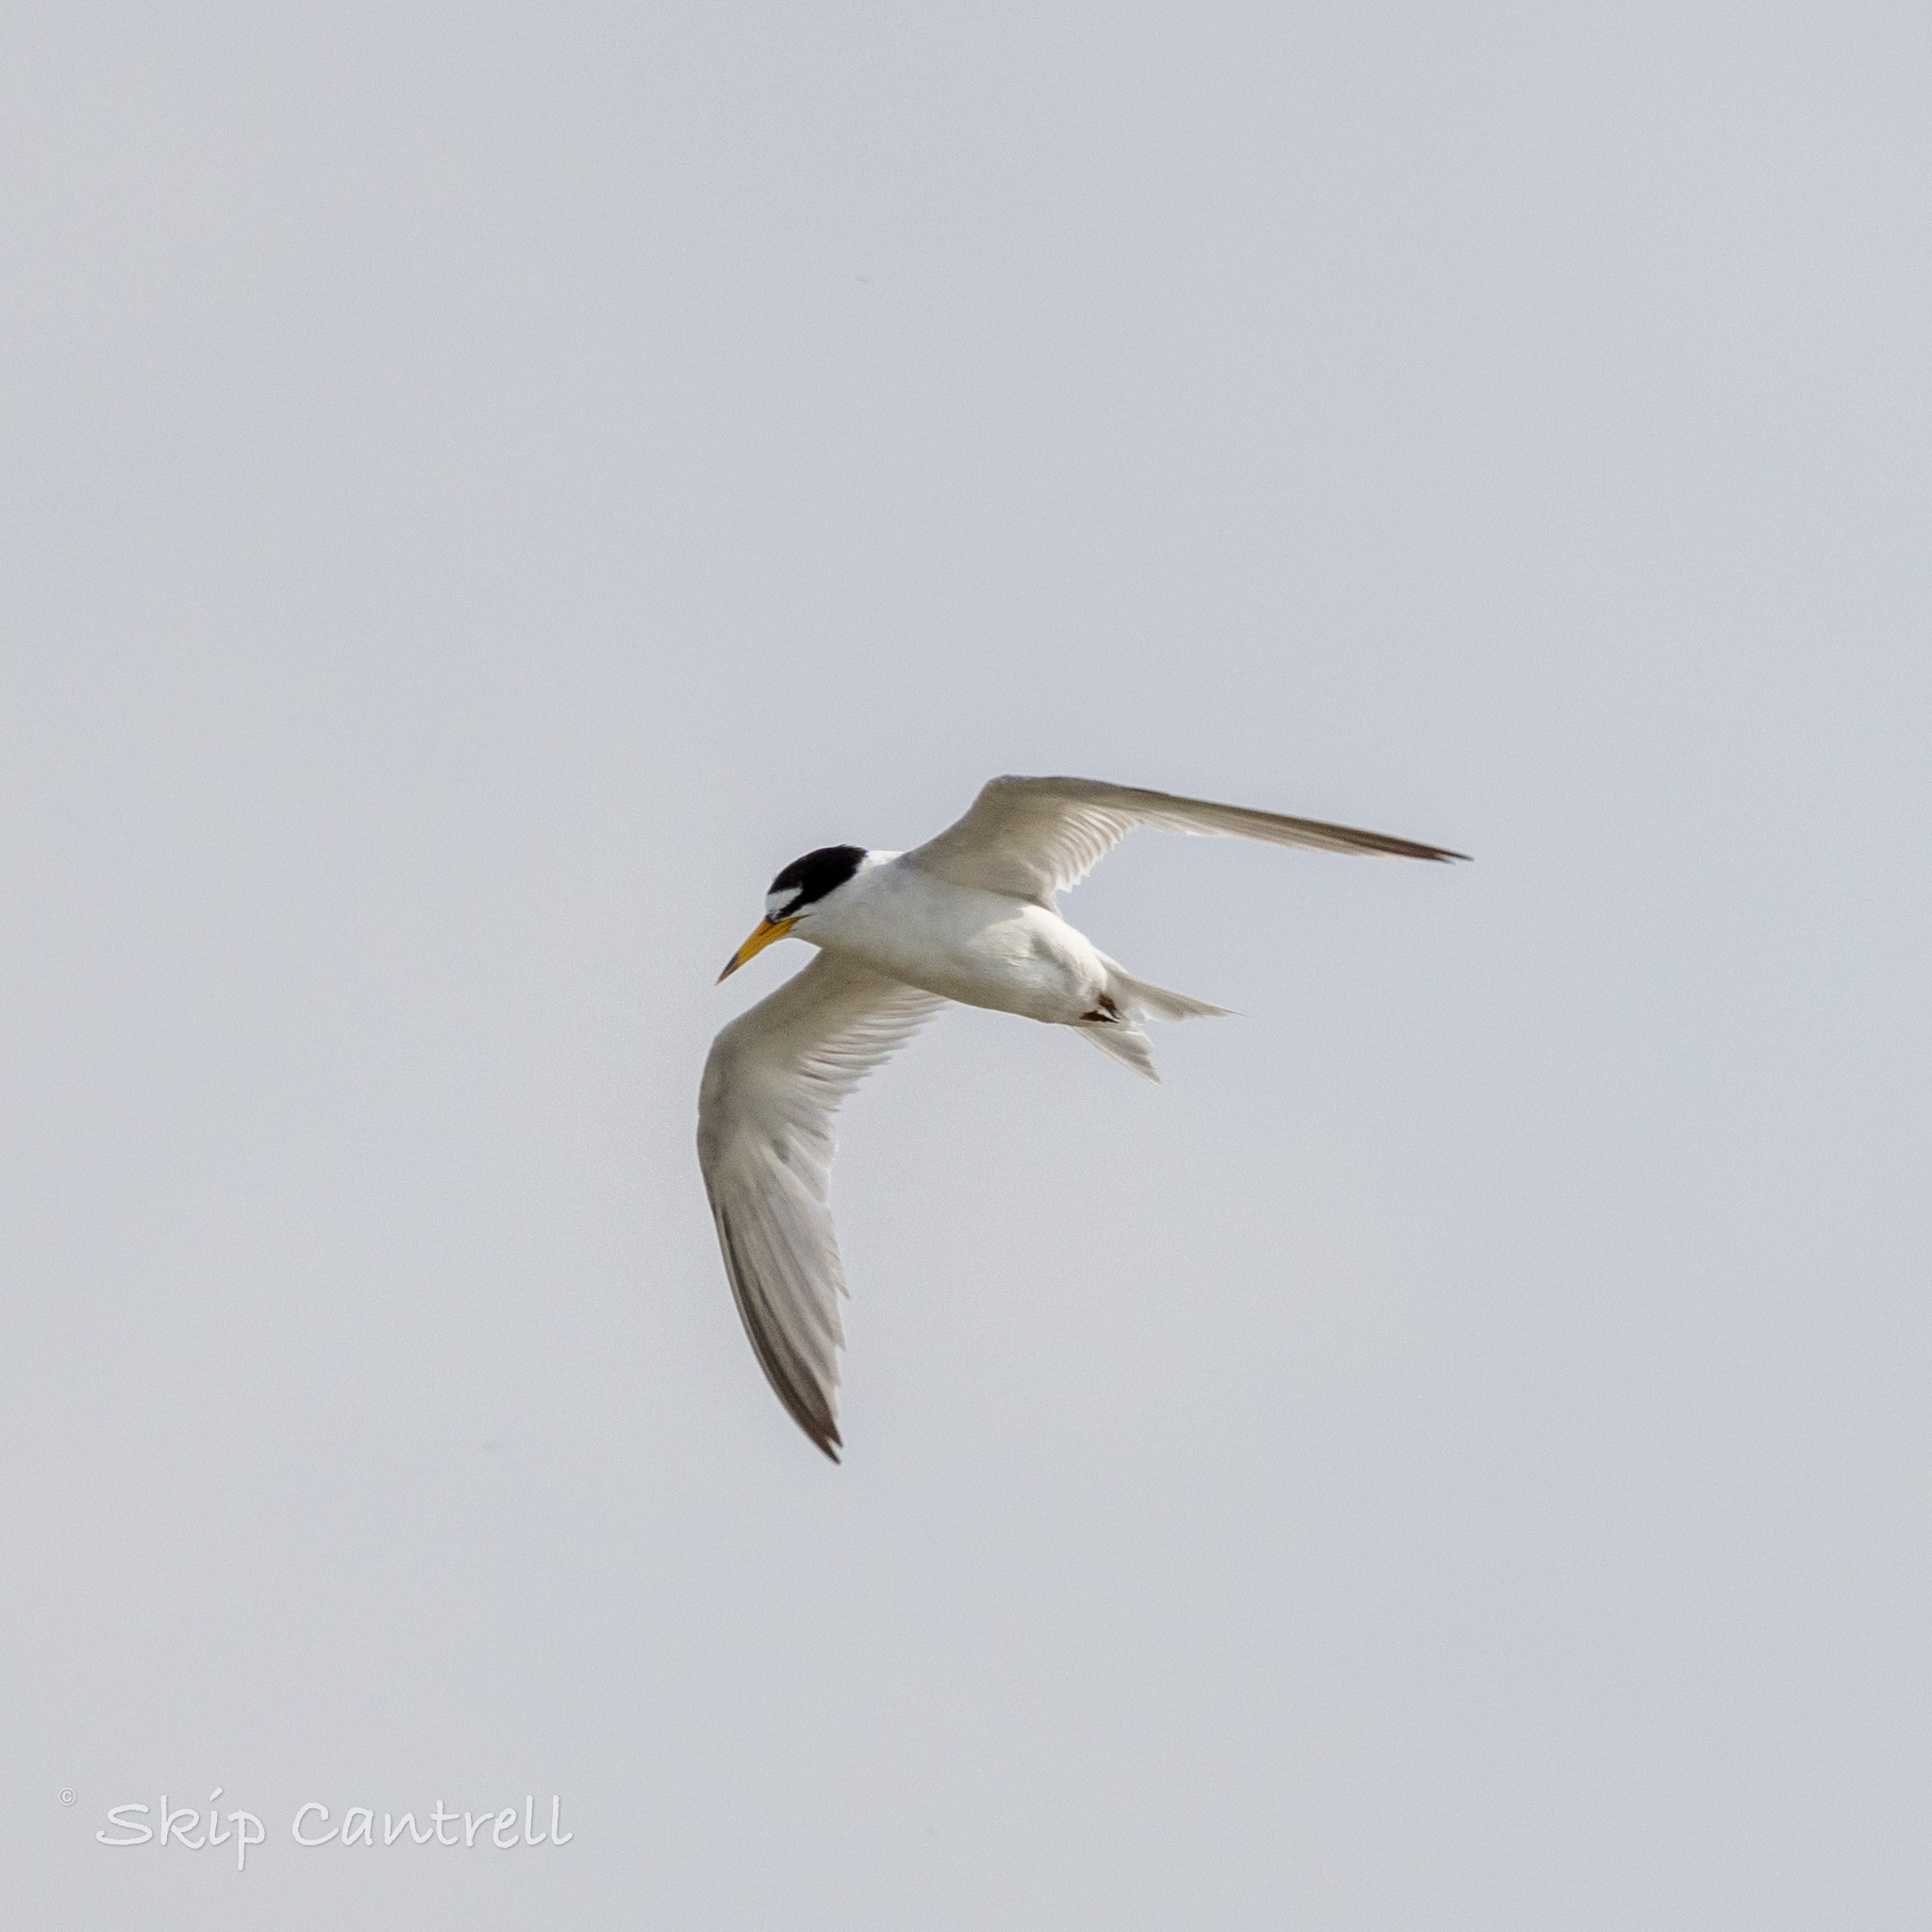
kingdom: Animalia
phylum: Chordata
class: Aves
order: Charadriiformes
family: Laridae
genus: Sternula
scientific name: Sternula antillarum
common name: Least tern
